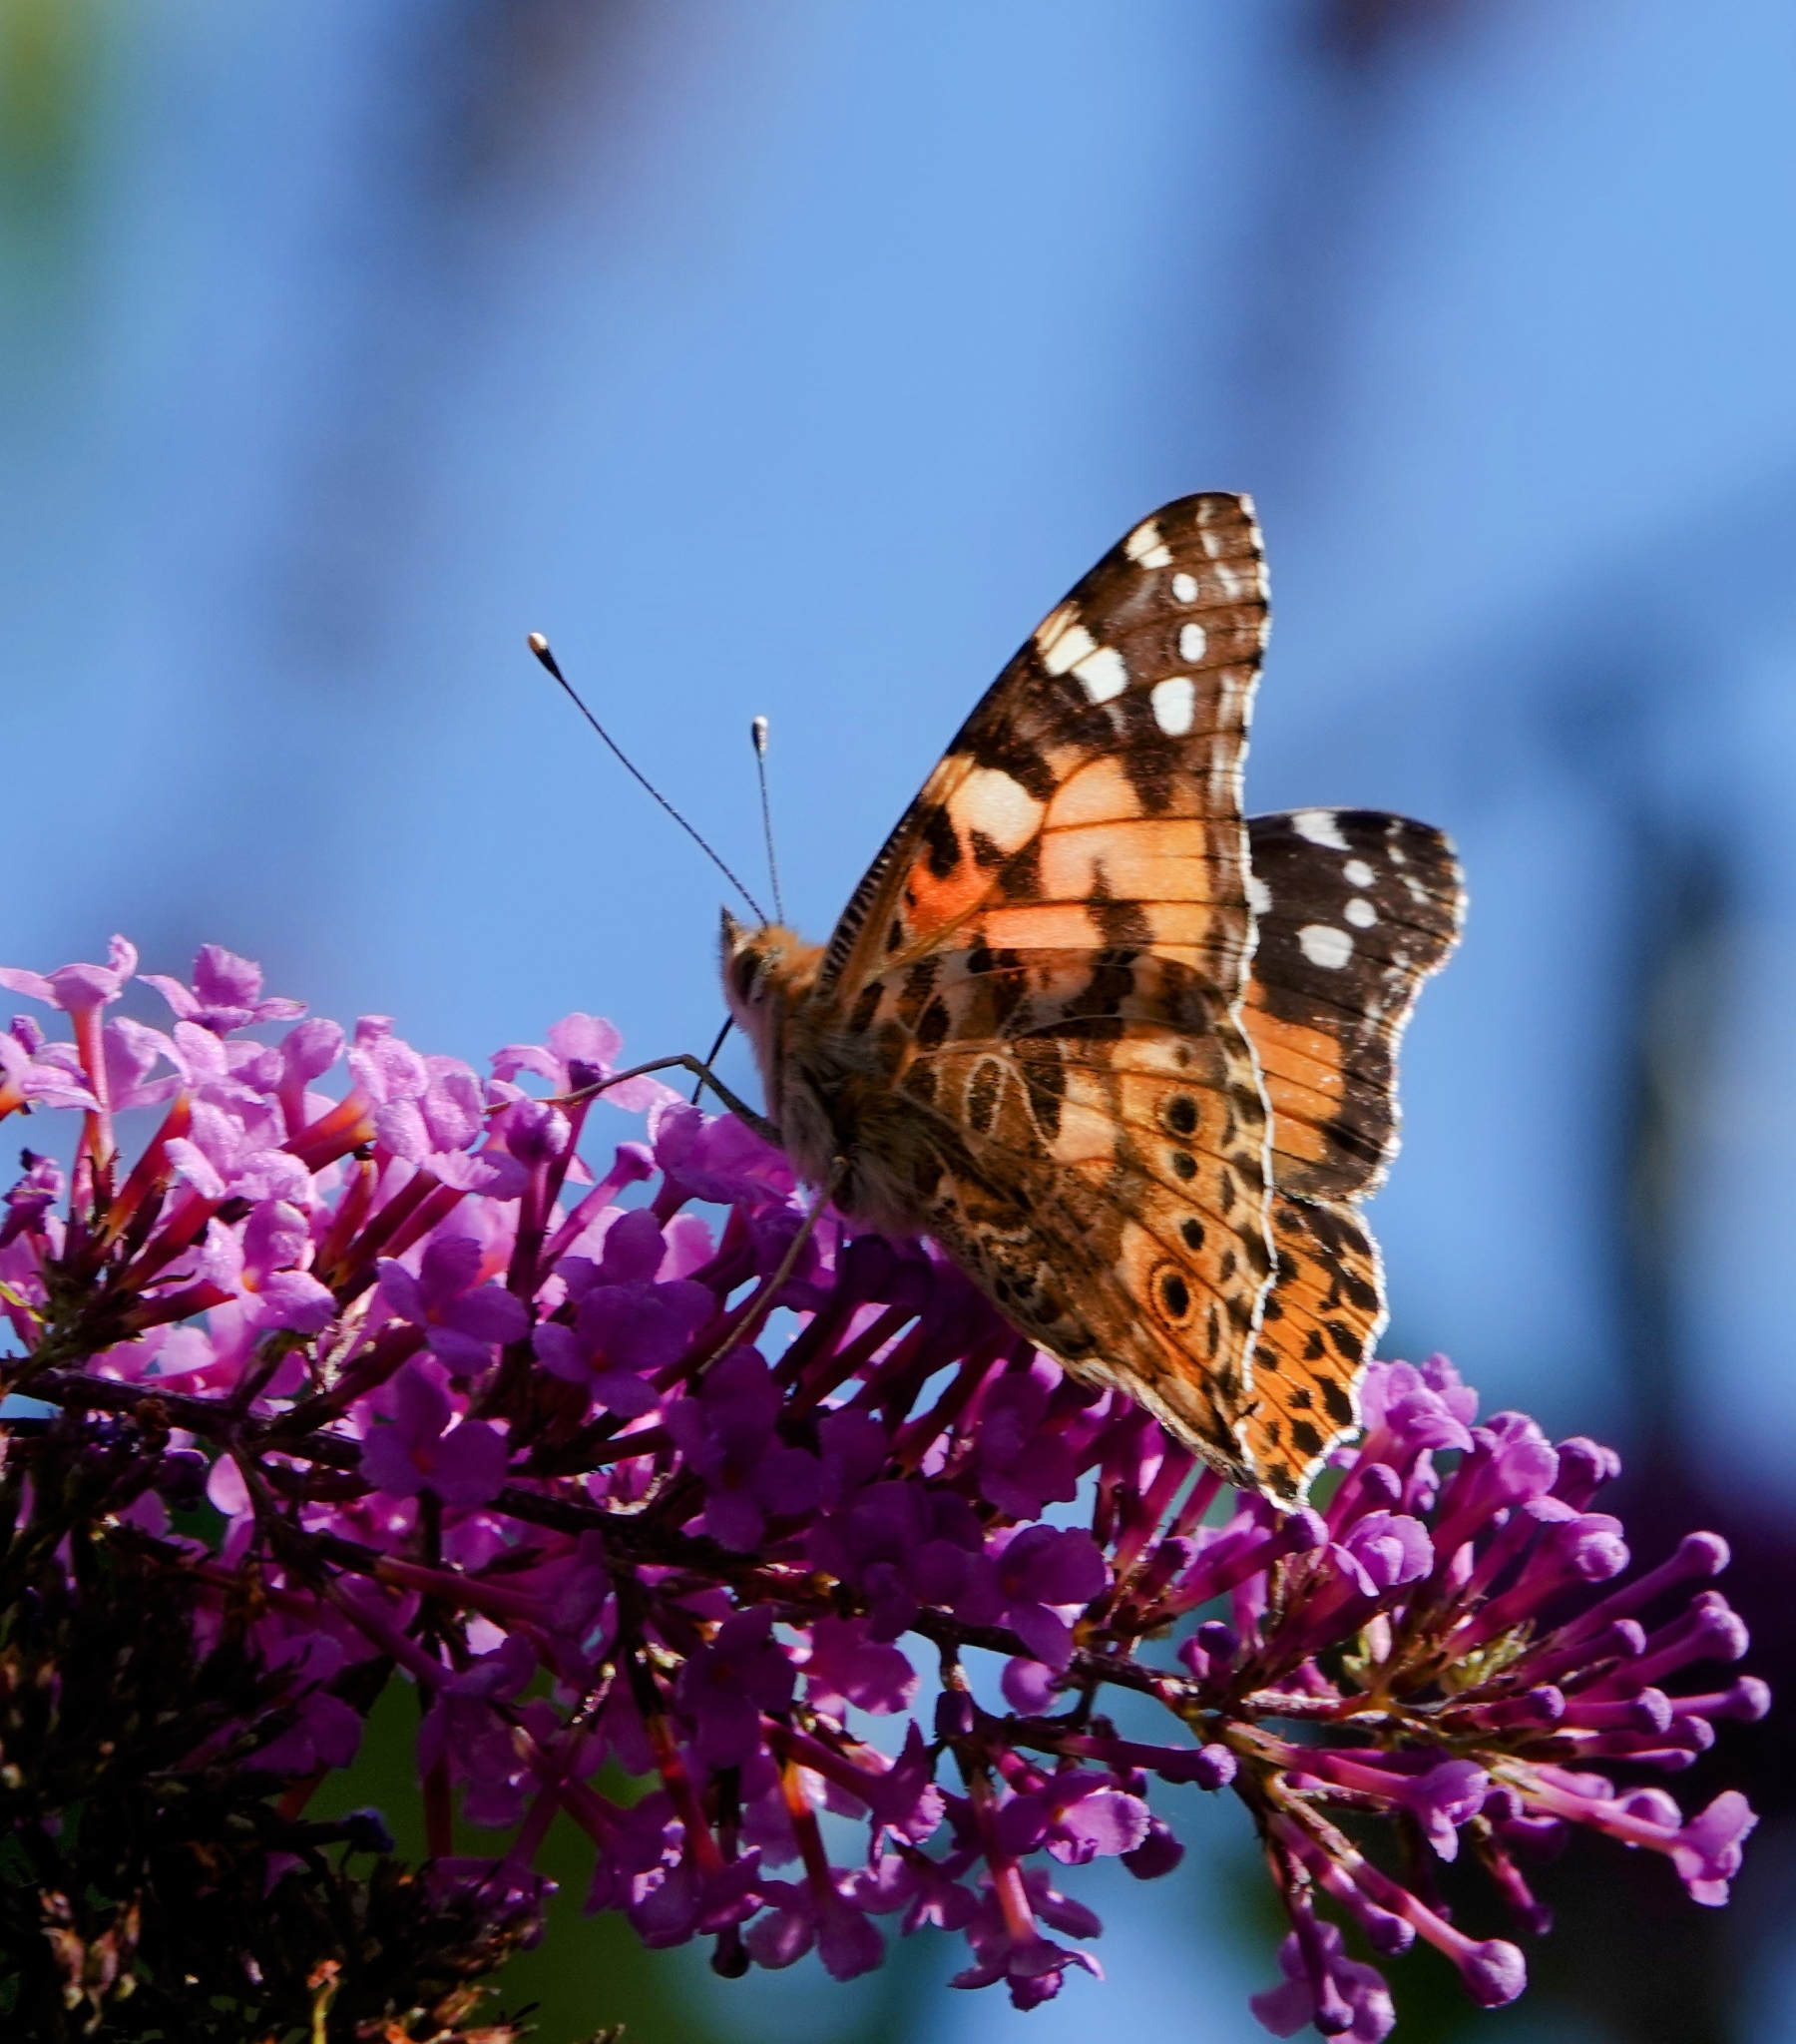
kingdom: Animalia
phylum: Arthropoda
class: Insecta
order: Lepidoptera
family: Nymphalidae
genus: Vanessa
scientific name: Vanessa cardui
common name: Painted lady
